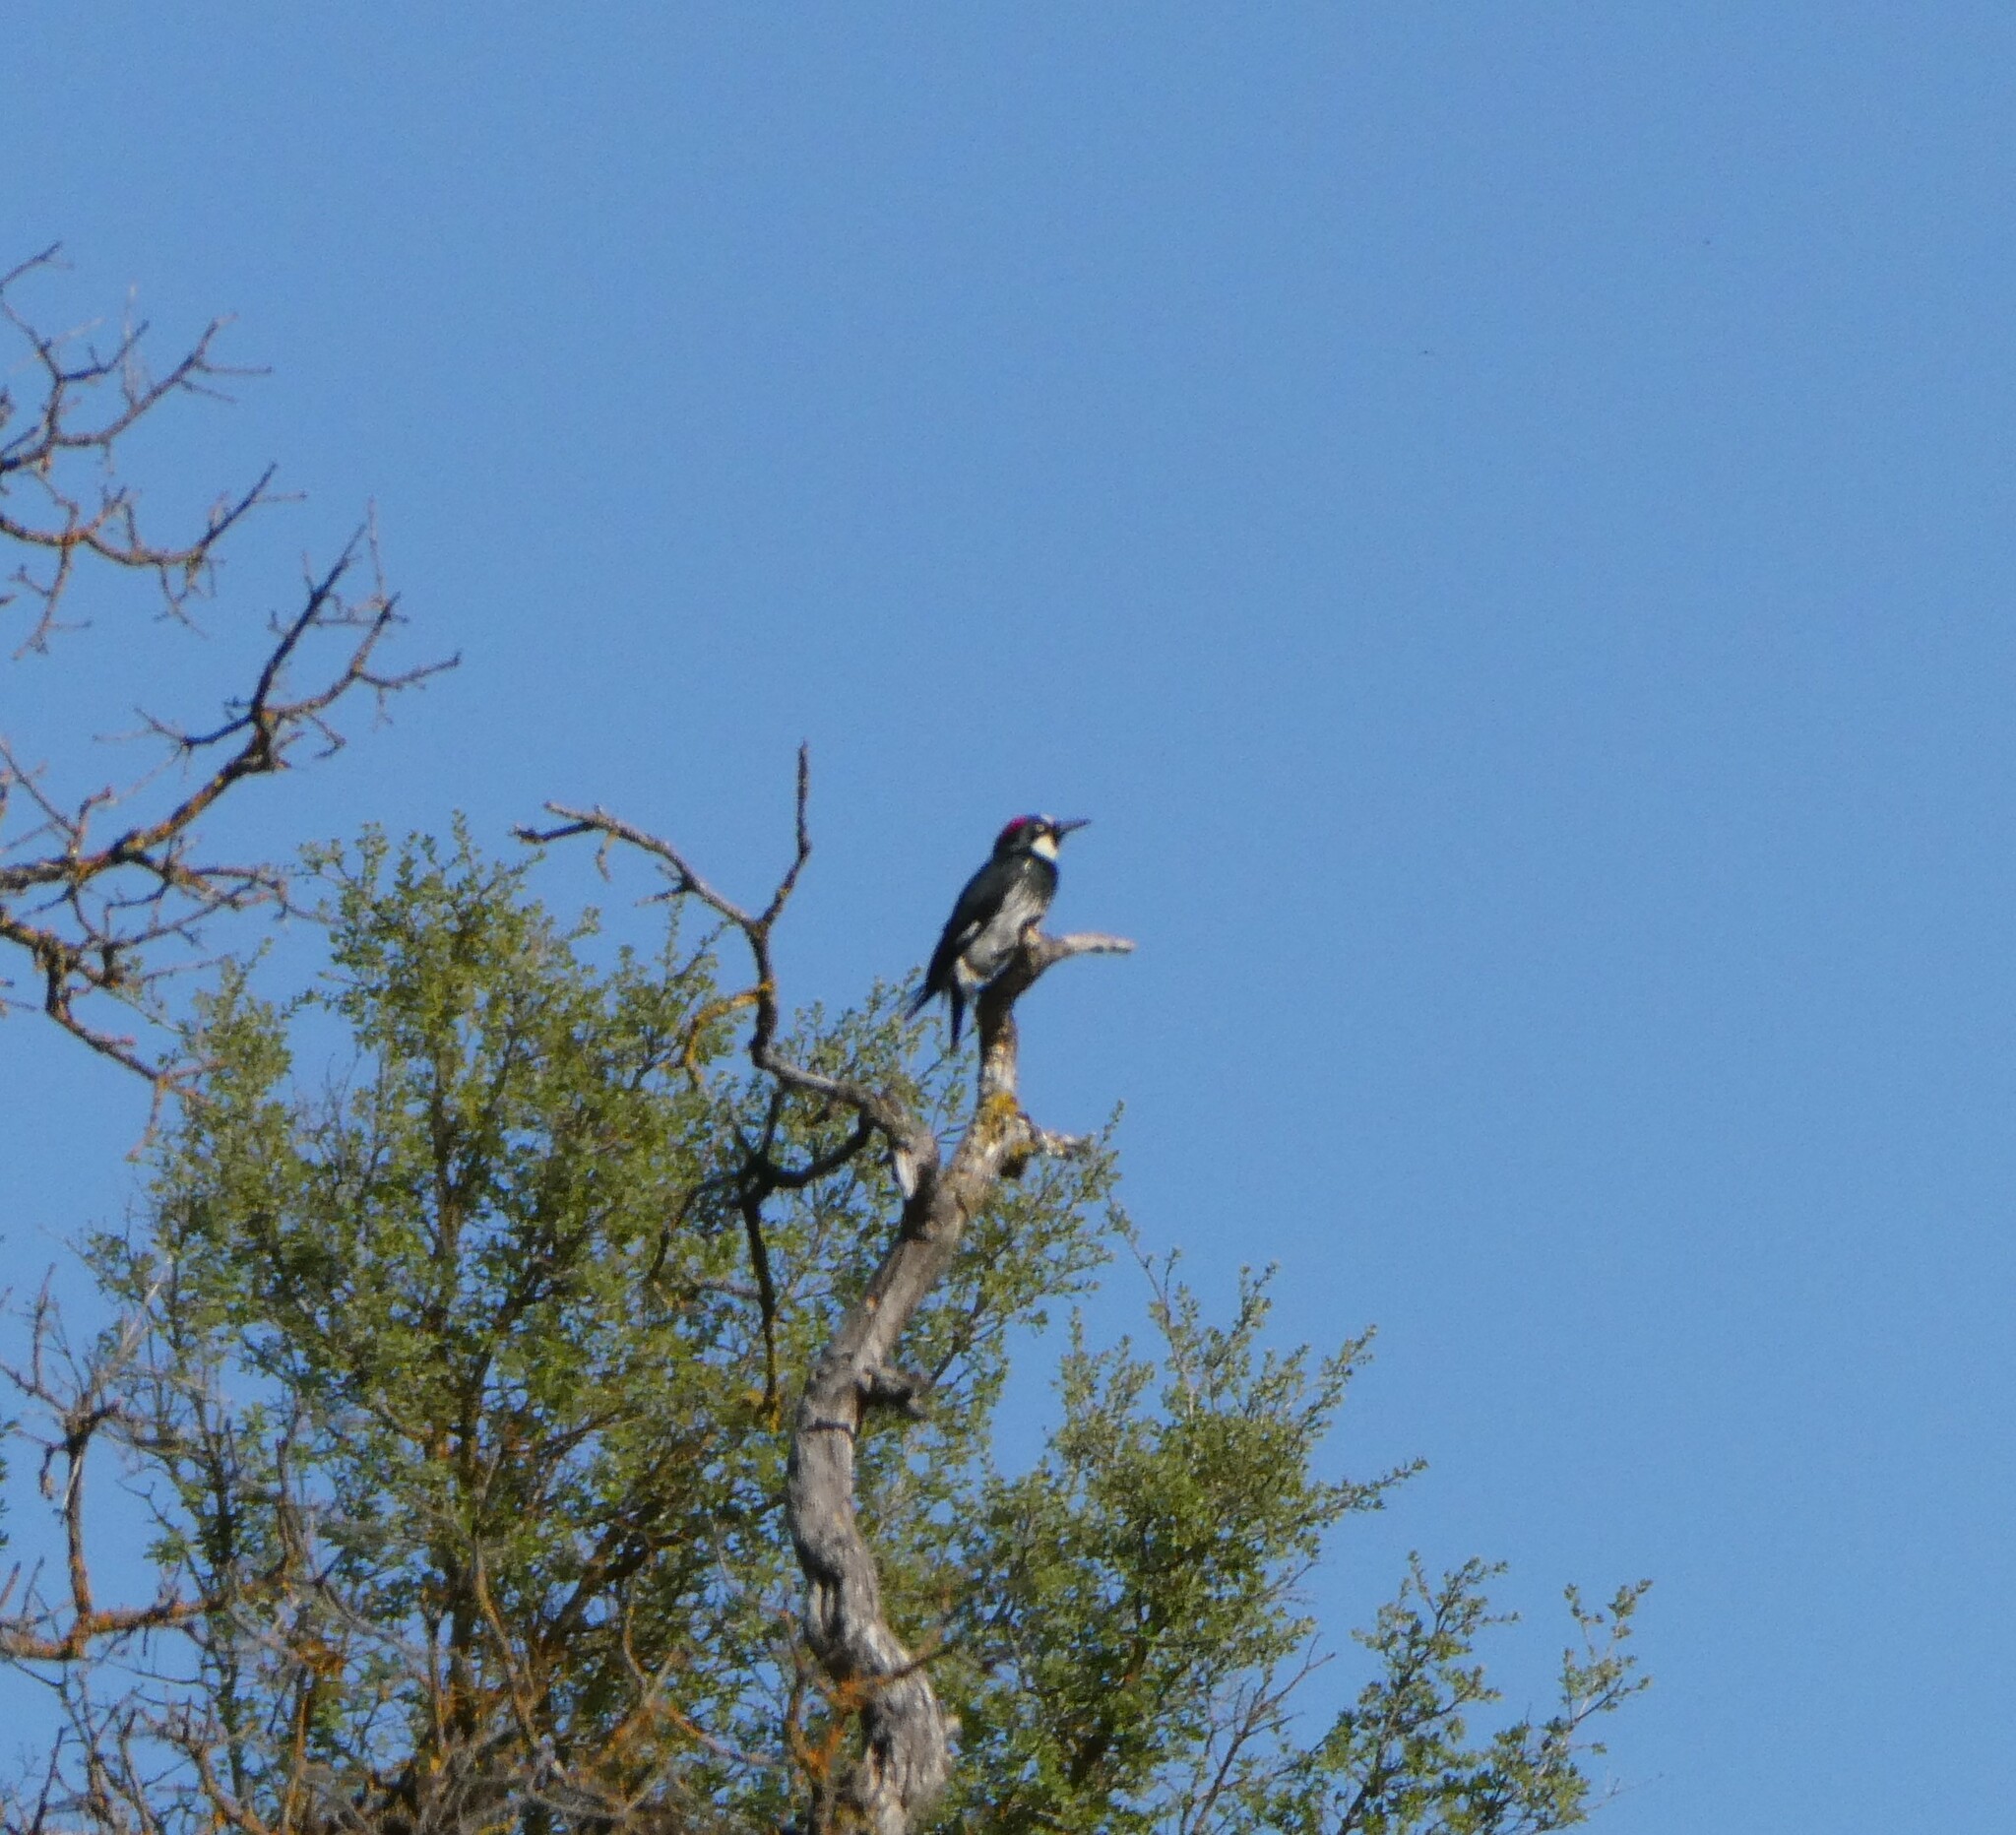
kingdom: Animalia
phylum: Chordata
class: Aves
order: Piciformes
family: Picidae
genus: Melanerpes
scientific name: Melanerpes formicivorus
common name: Acorn woodpecker
